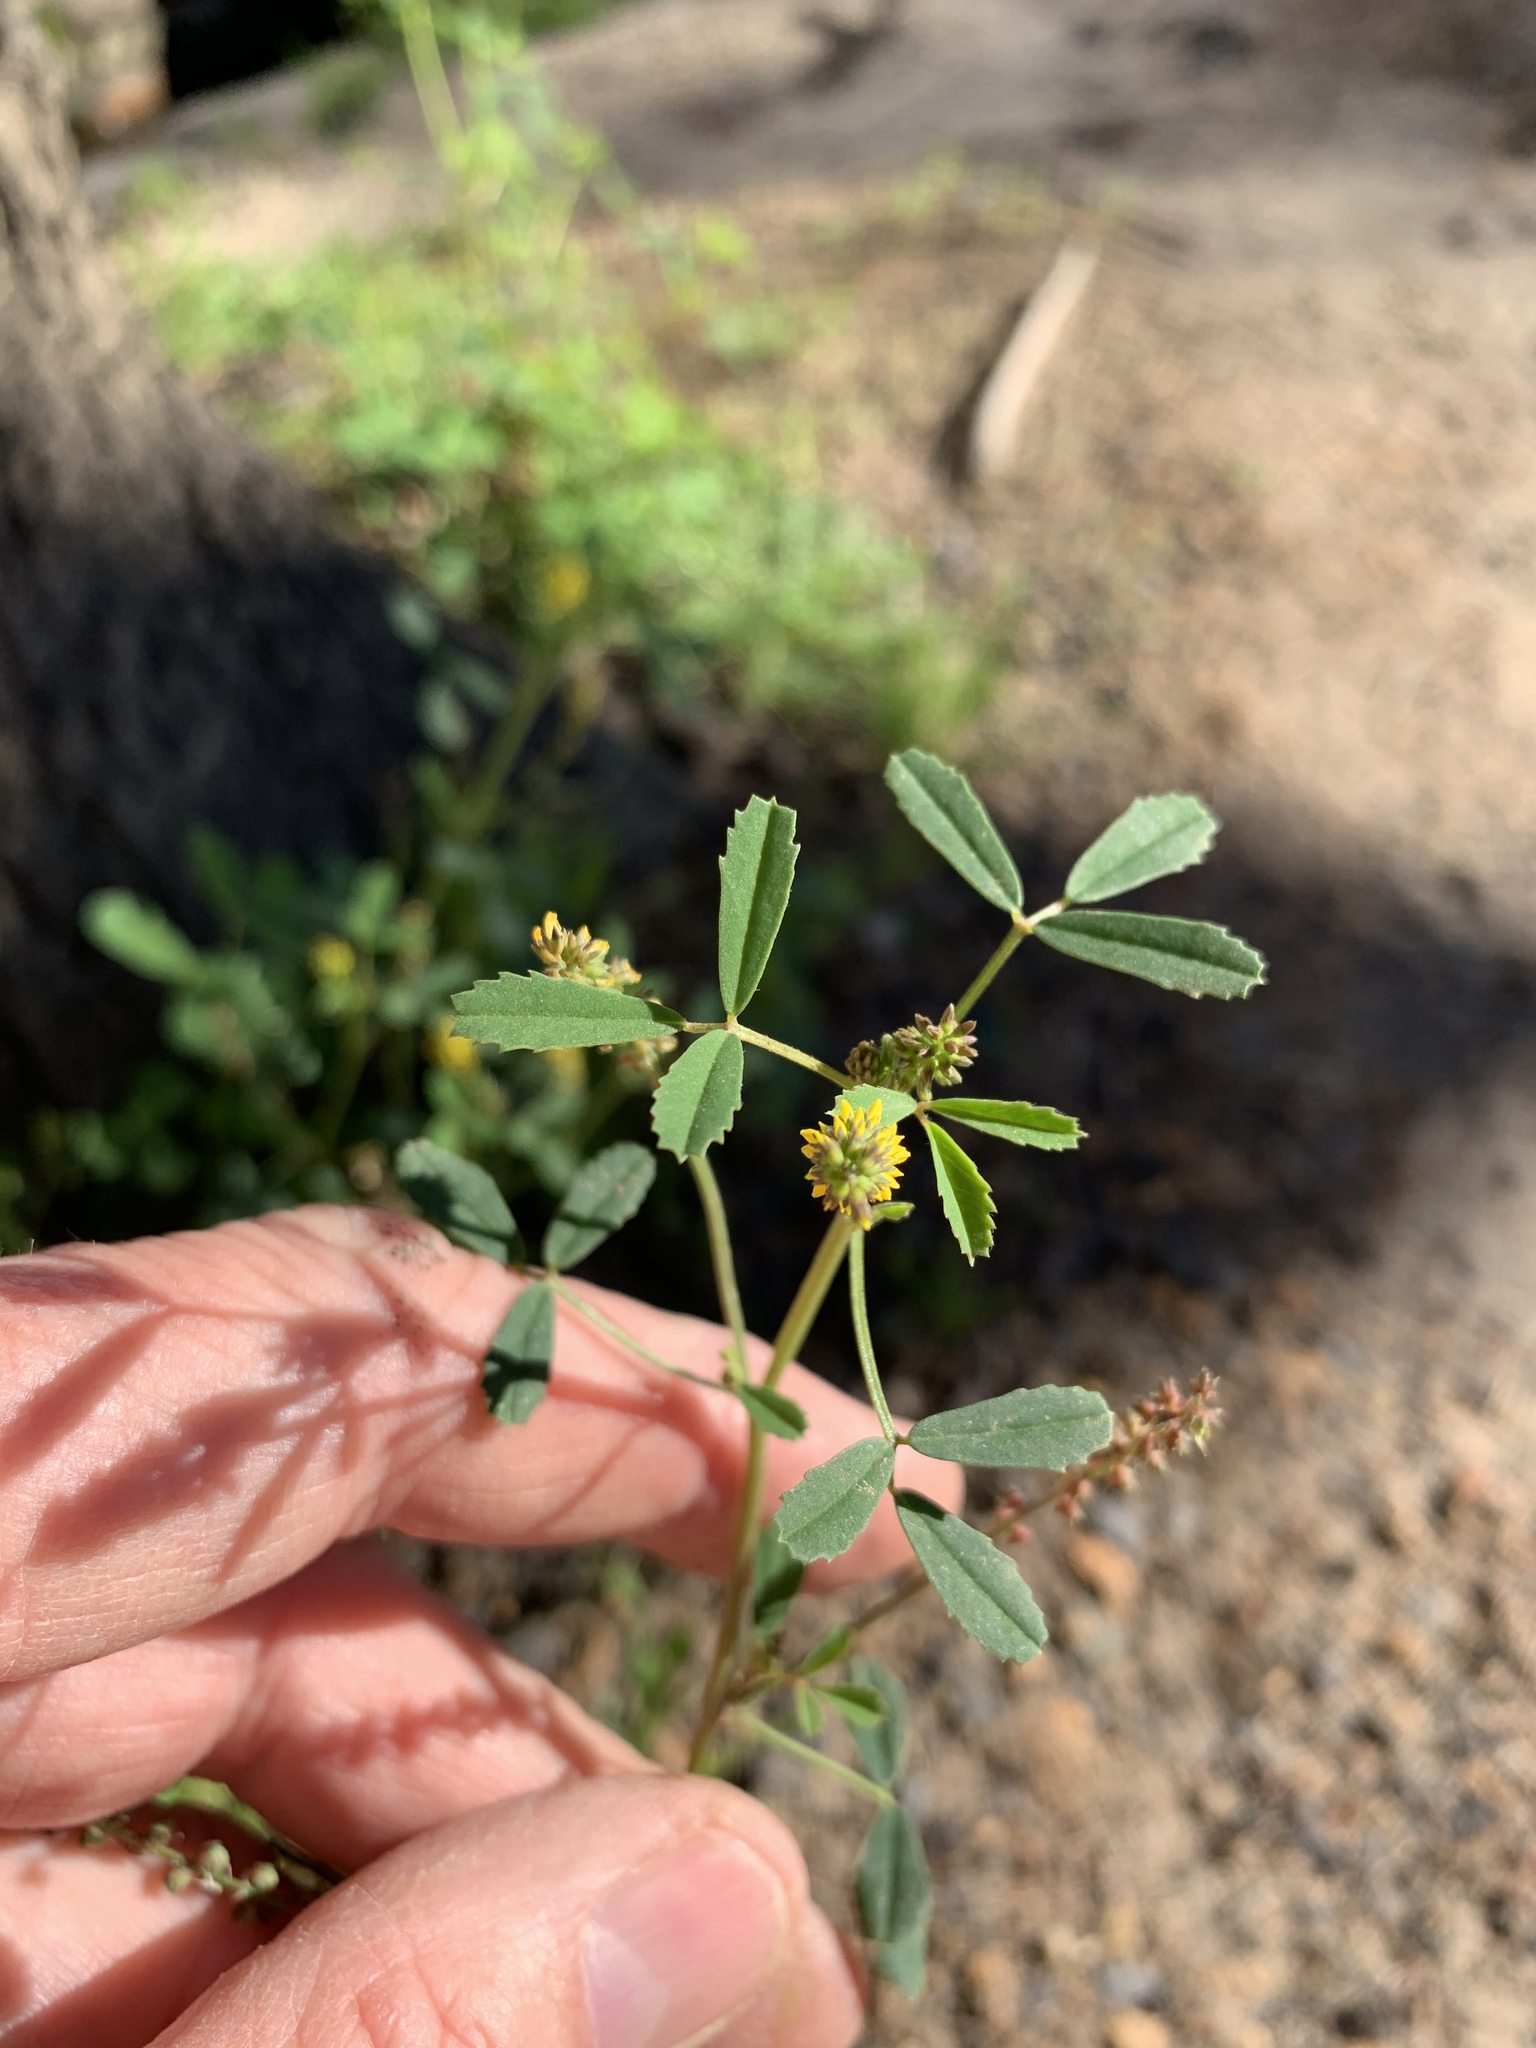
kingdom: Plantae
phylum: Tracheophyta
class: Magnoliopsida
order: Fabales
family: Fabaceae
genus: Melilotus
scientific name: Melilotus indicus
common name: Small melilot
